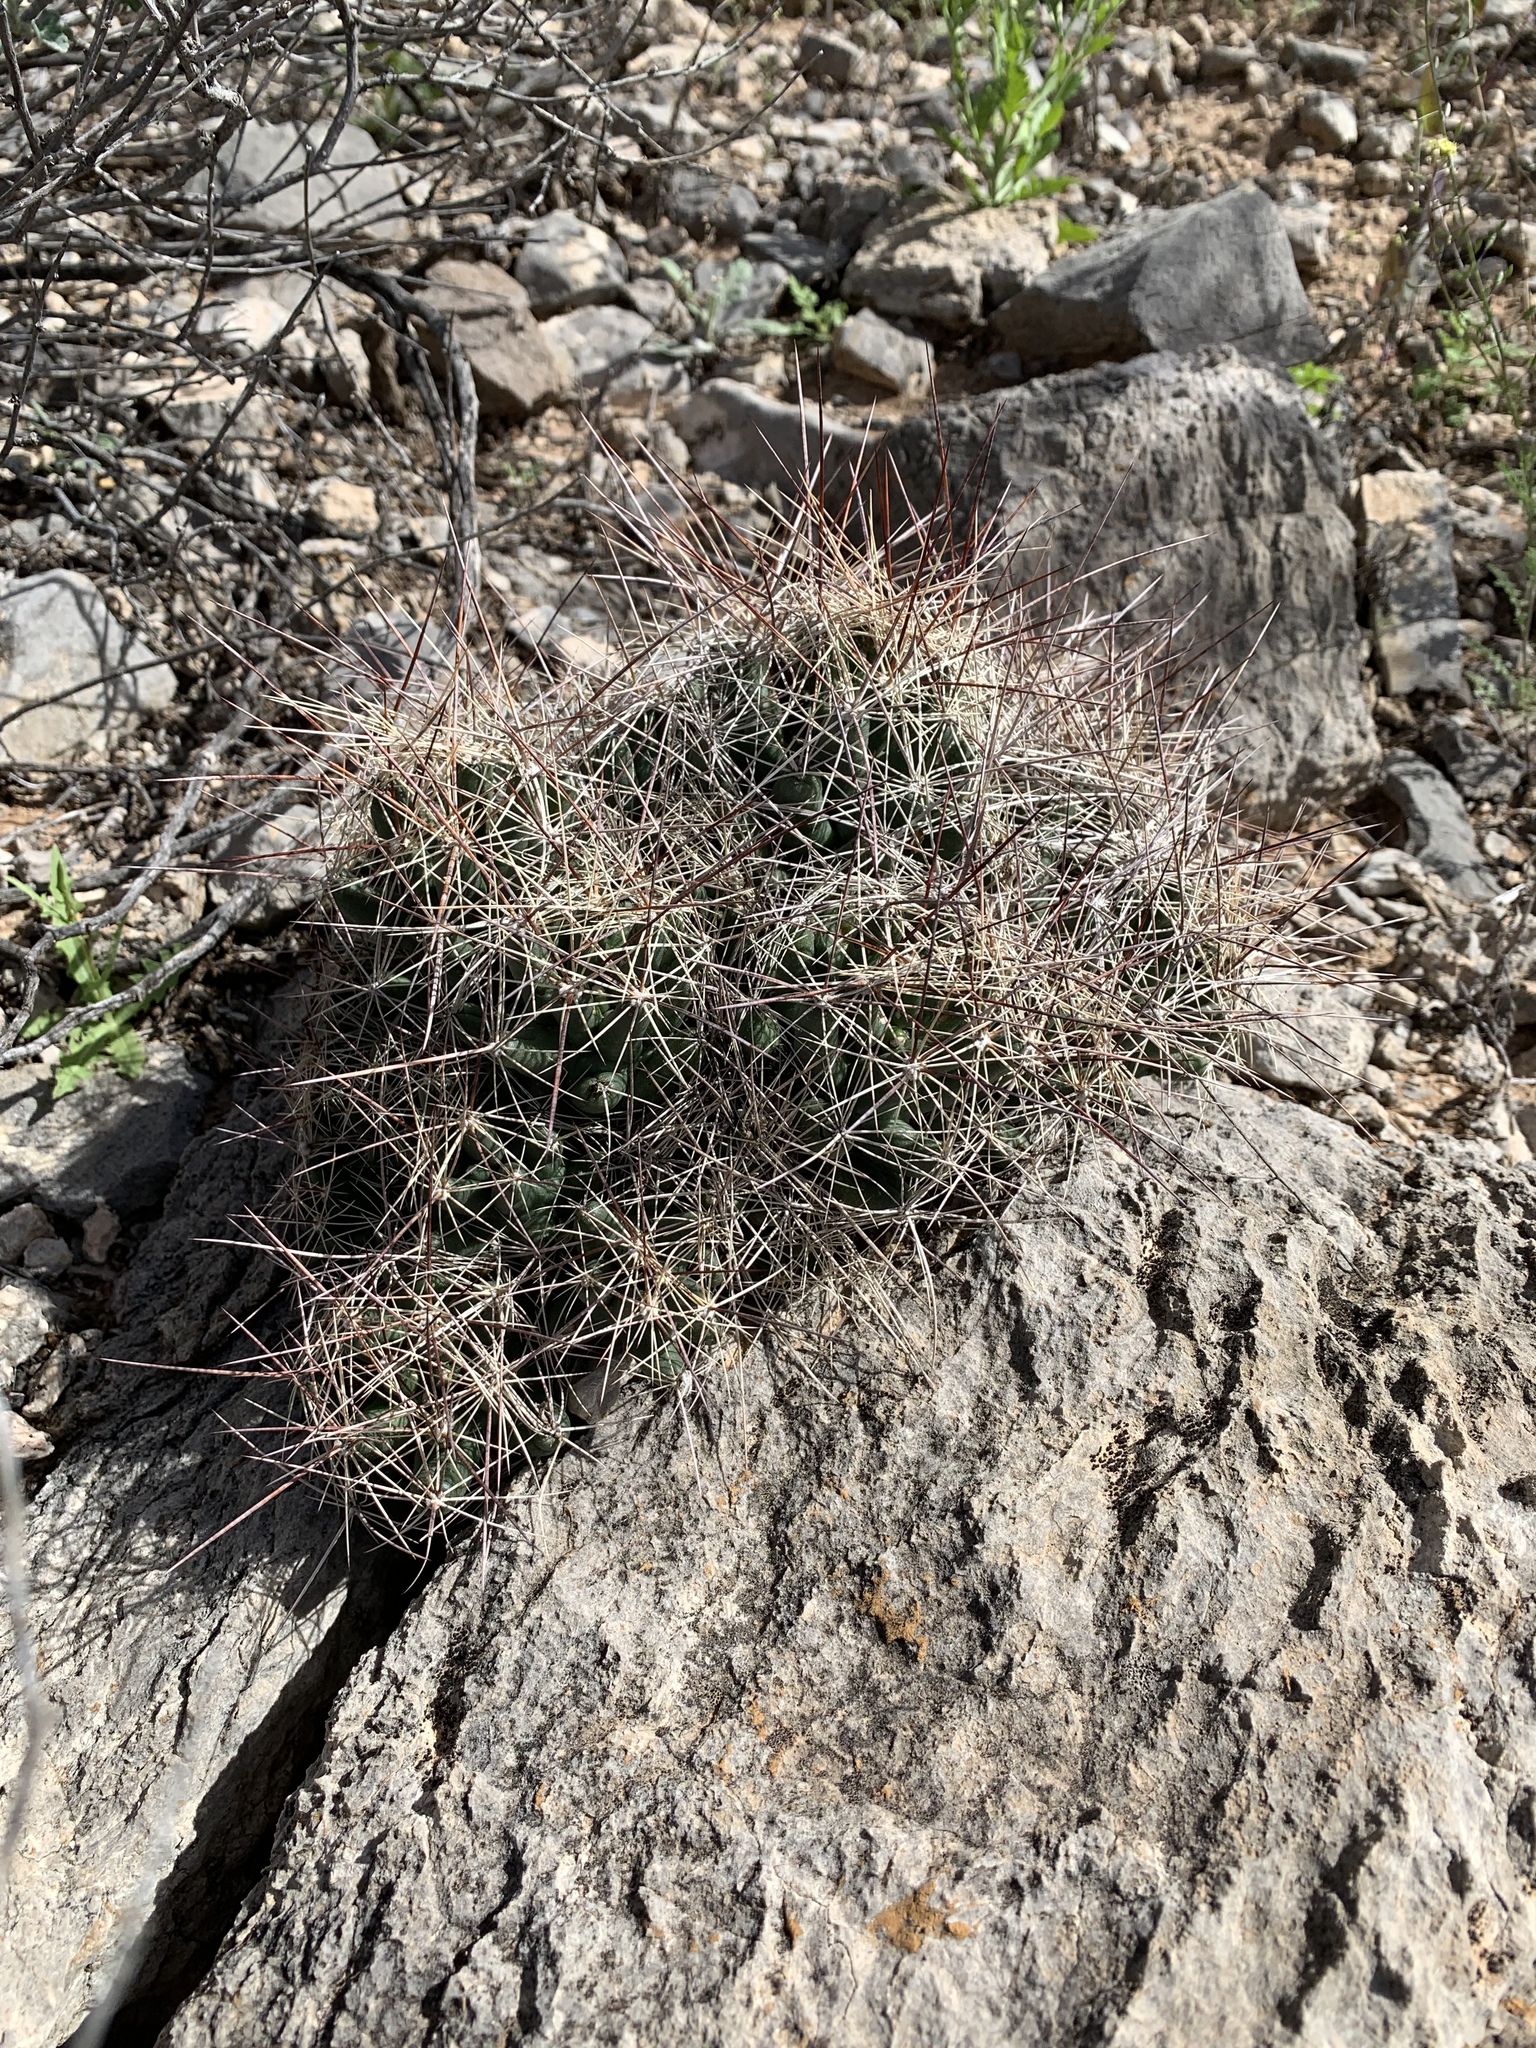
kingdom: Plantae
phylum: Tracheophyta
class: Magnoliopsida
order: Caryophyllales
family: Cactaceae
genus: Coryphantha
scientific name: Coryphantha macromeris
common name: Nipple beehive cactus
